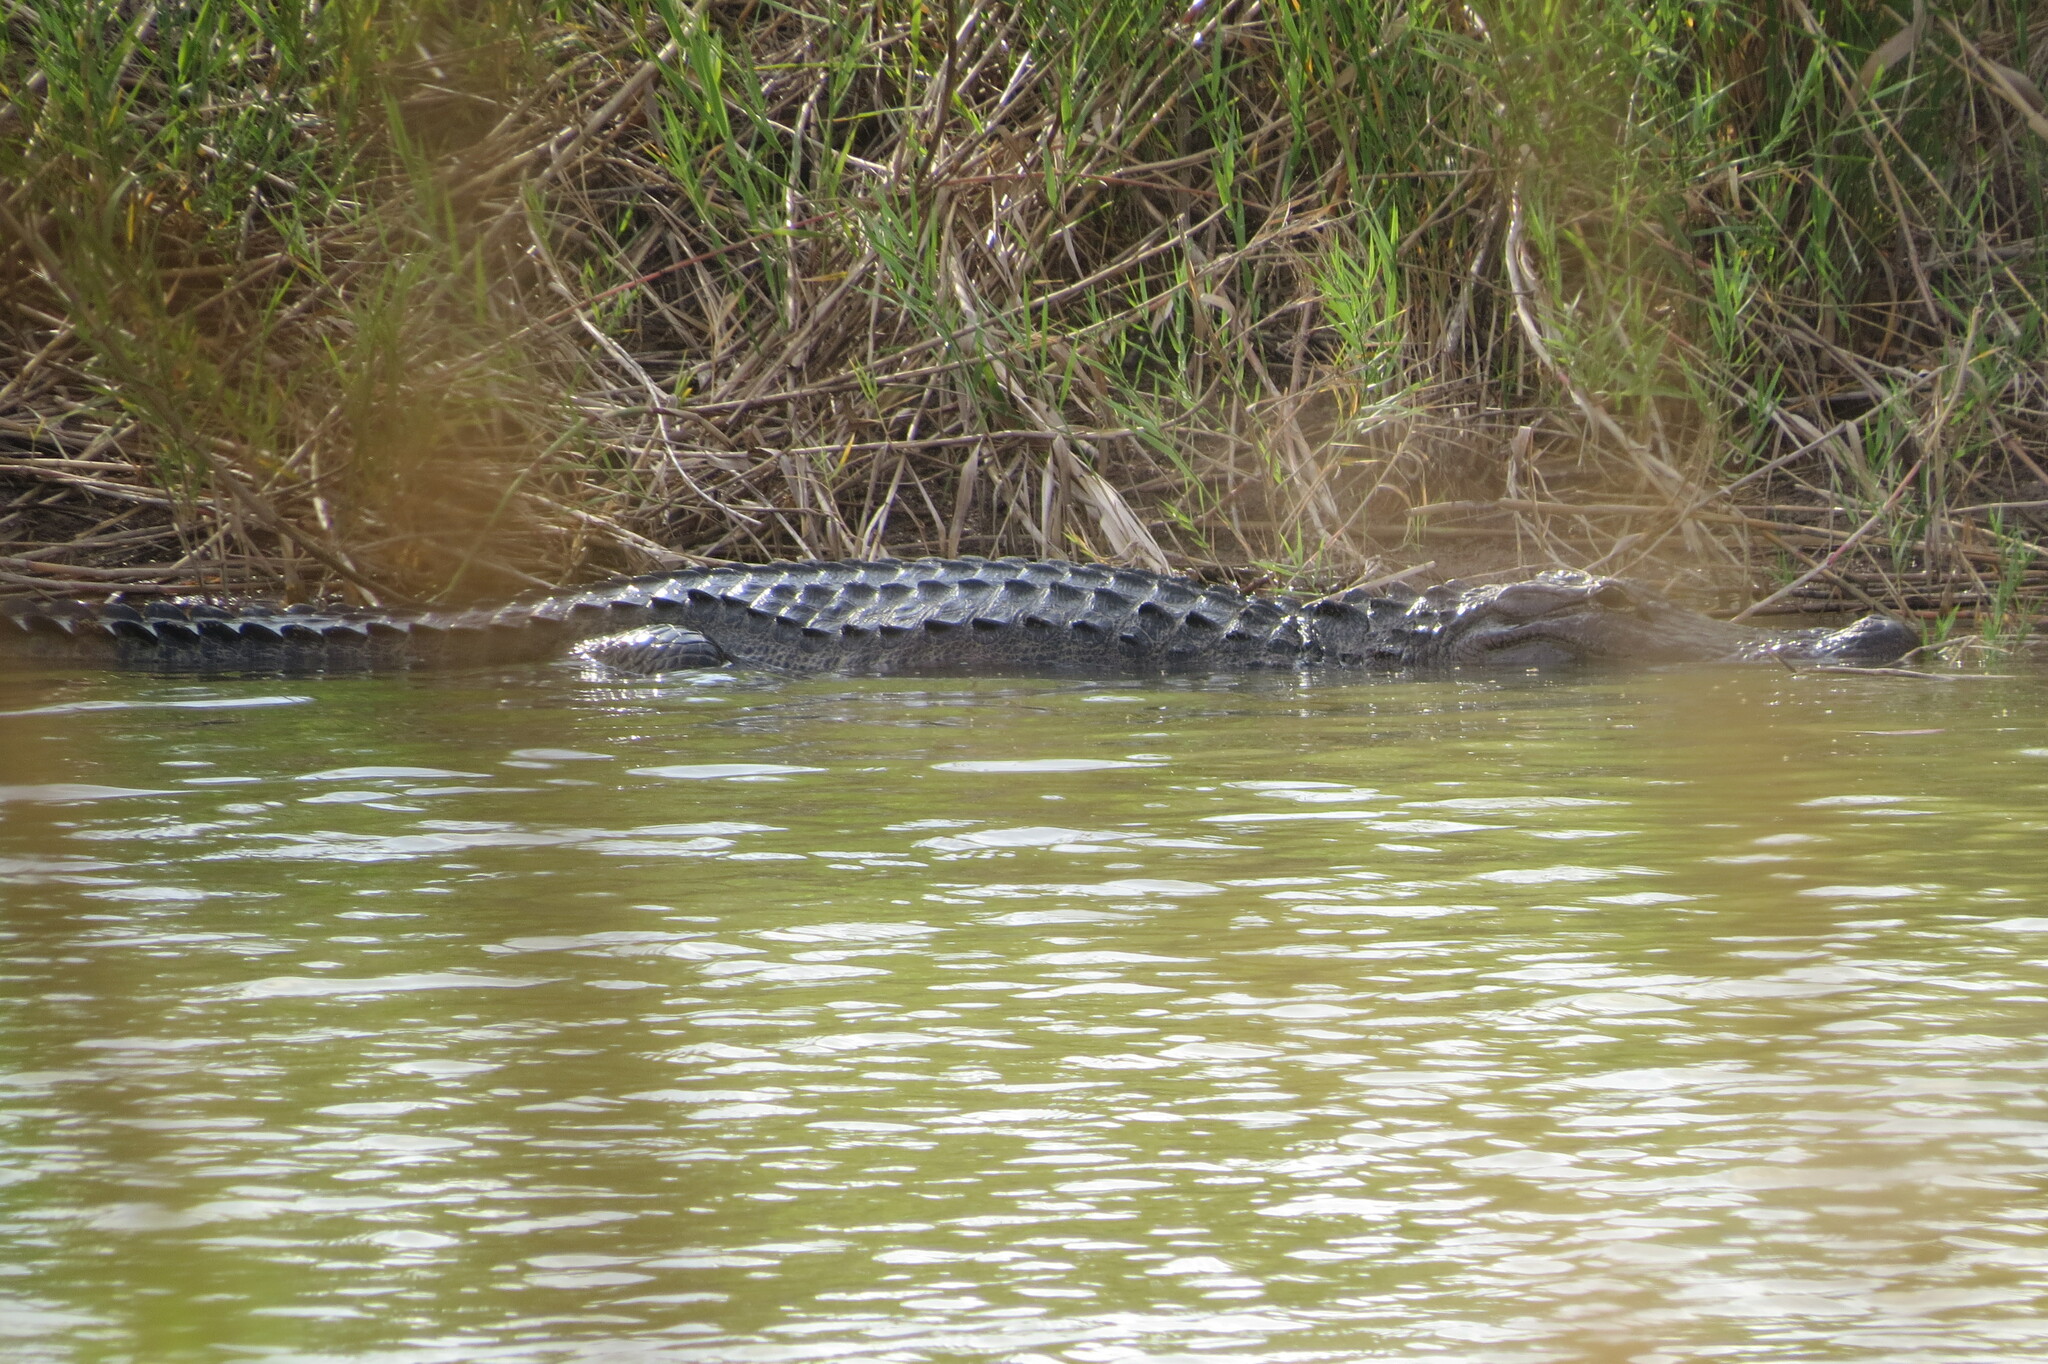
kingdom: Animalia
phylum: Chordata
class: Crocodylia
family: Alligatoridae
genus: Alligator
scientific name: Alligator mississippiensis
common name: American alligator
